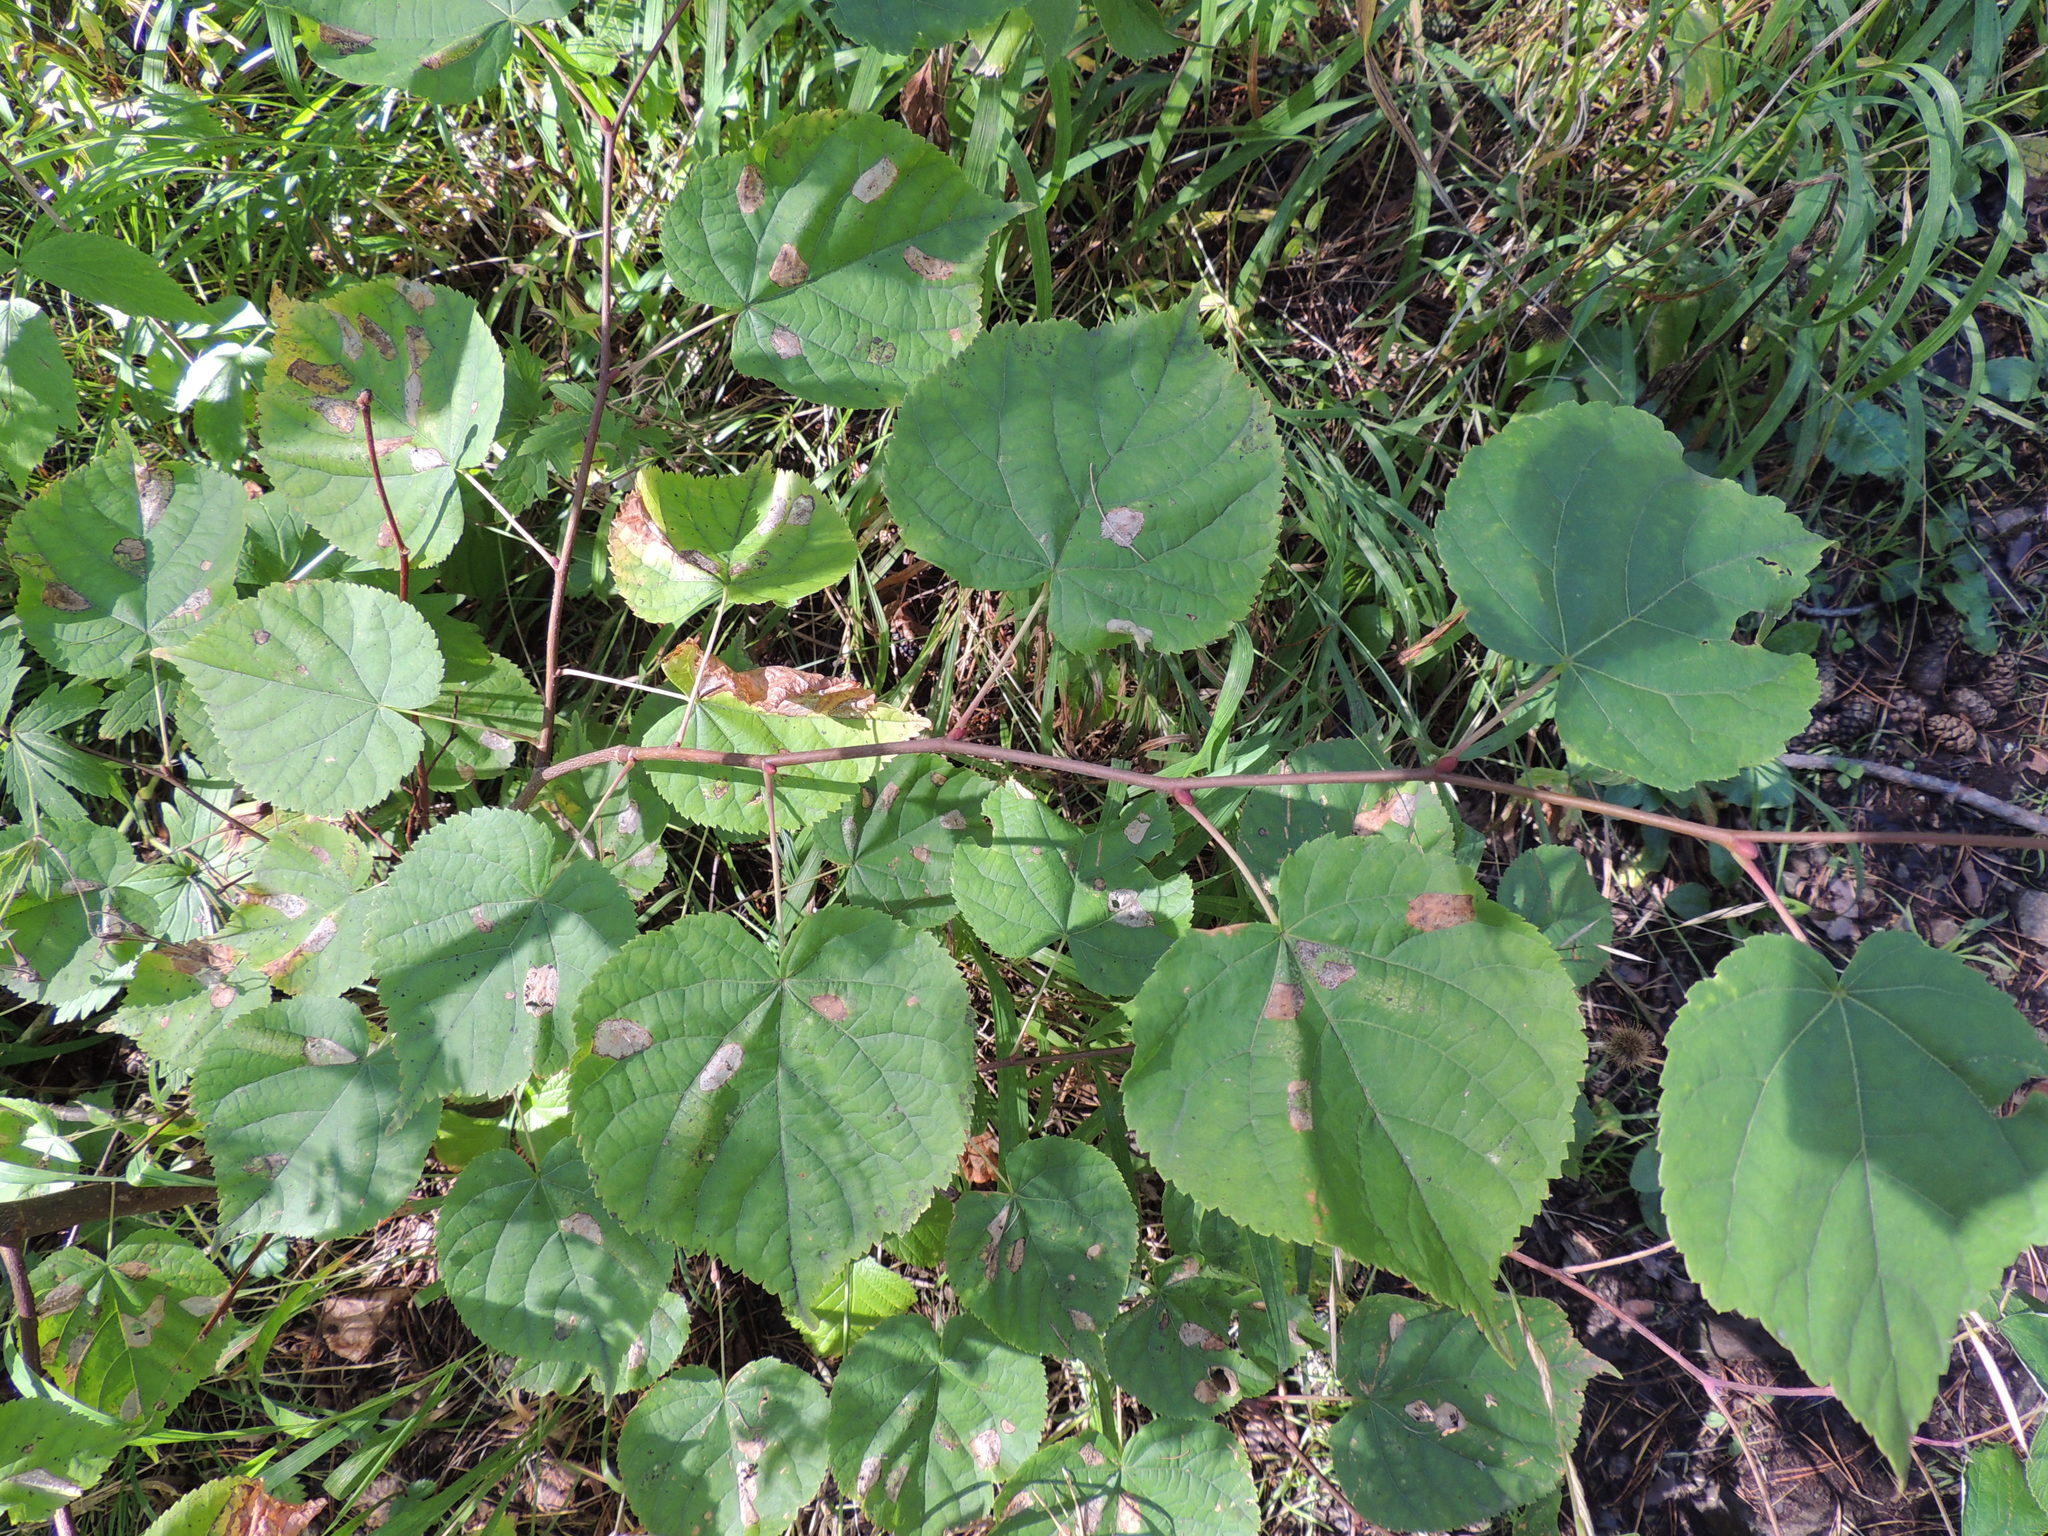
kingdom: Plantae
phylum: Tracheophyta
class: Magnoliopsida
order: Malvales
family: Malvaceae
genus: Tilia
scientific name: Tilia cordata
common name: Small-leaved lime
